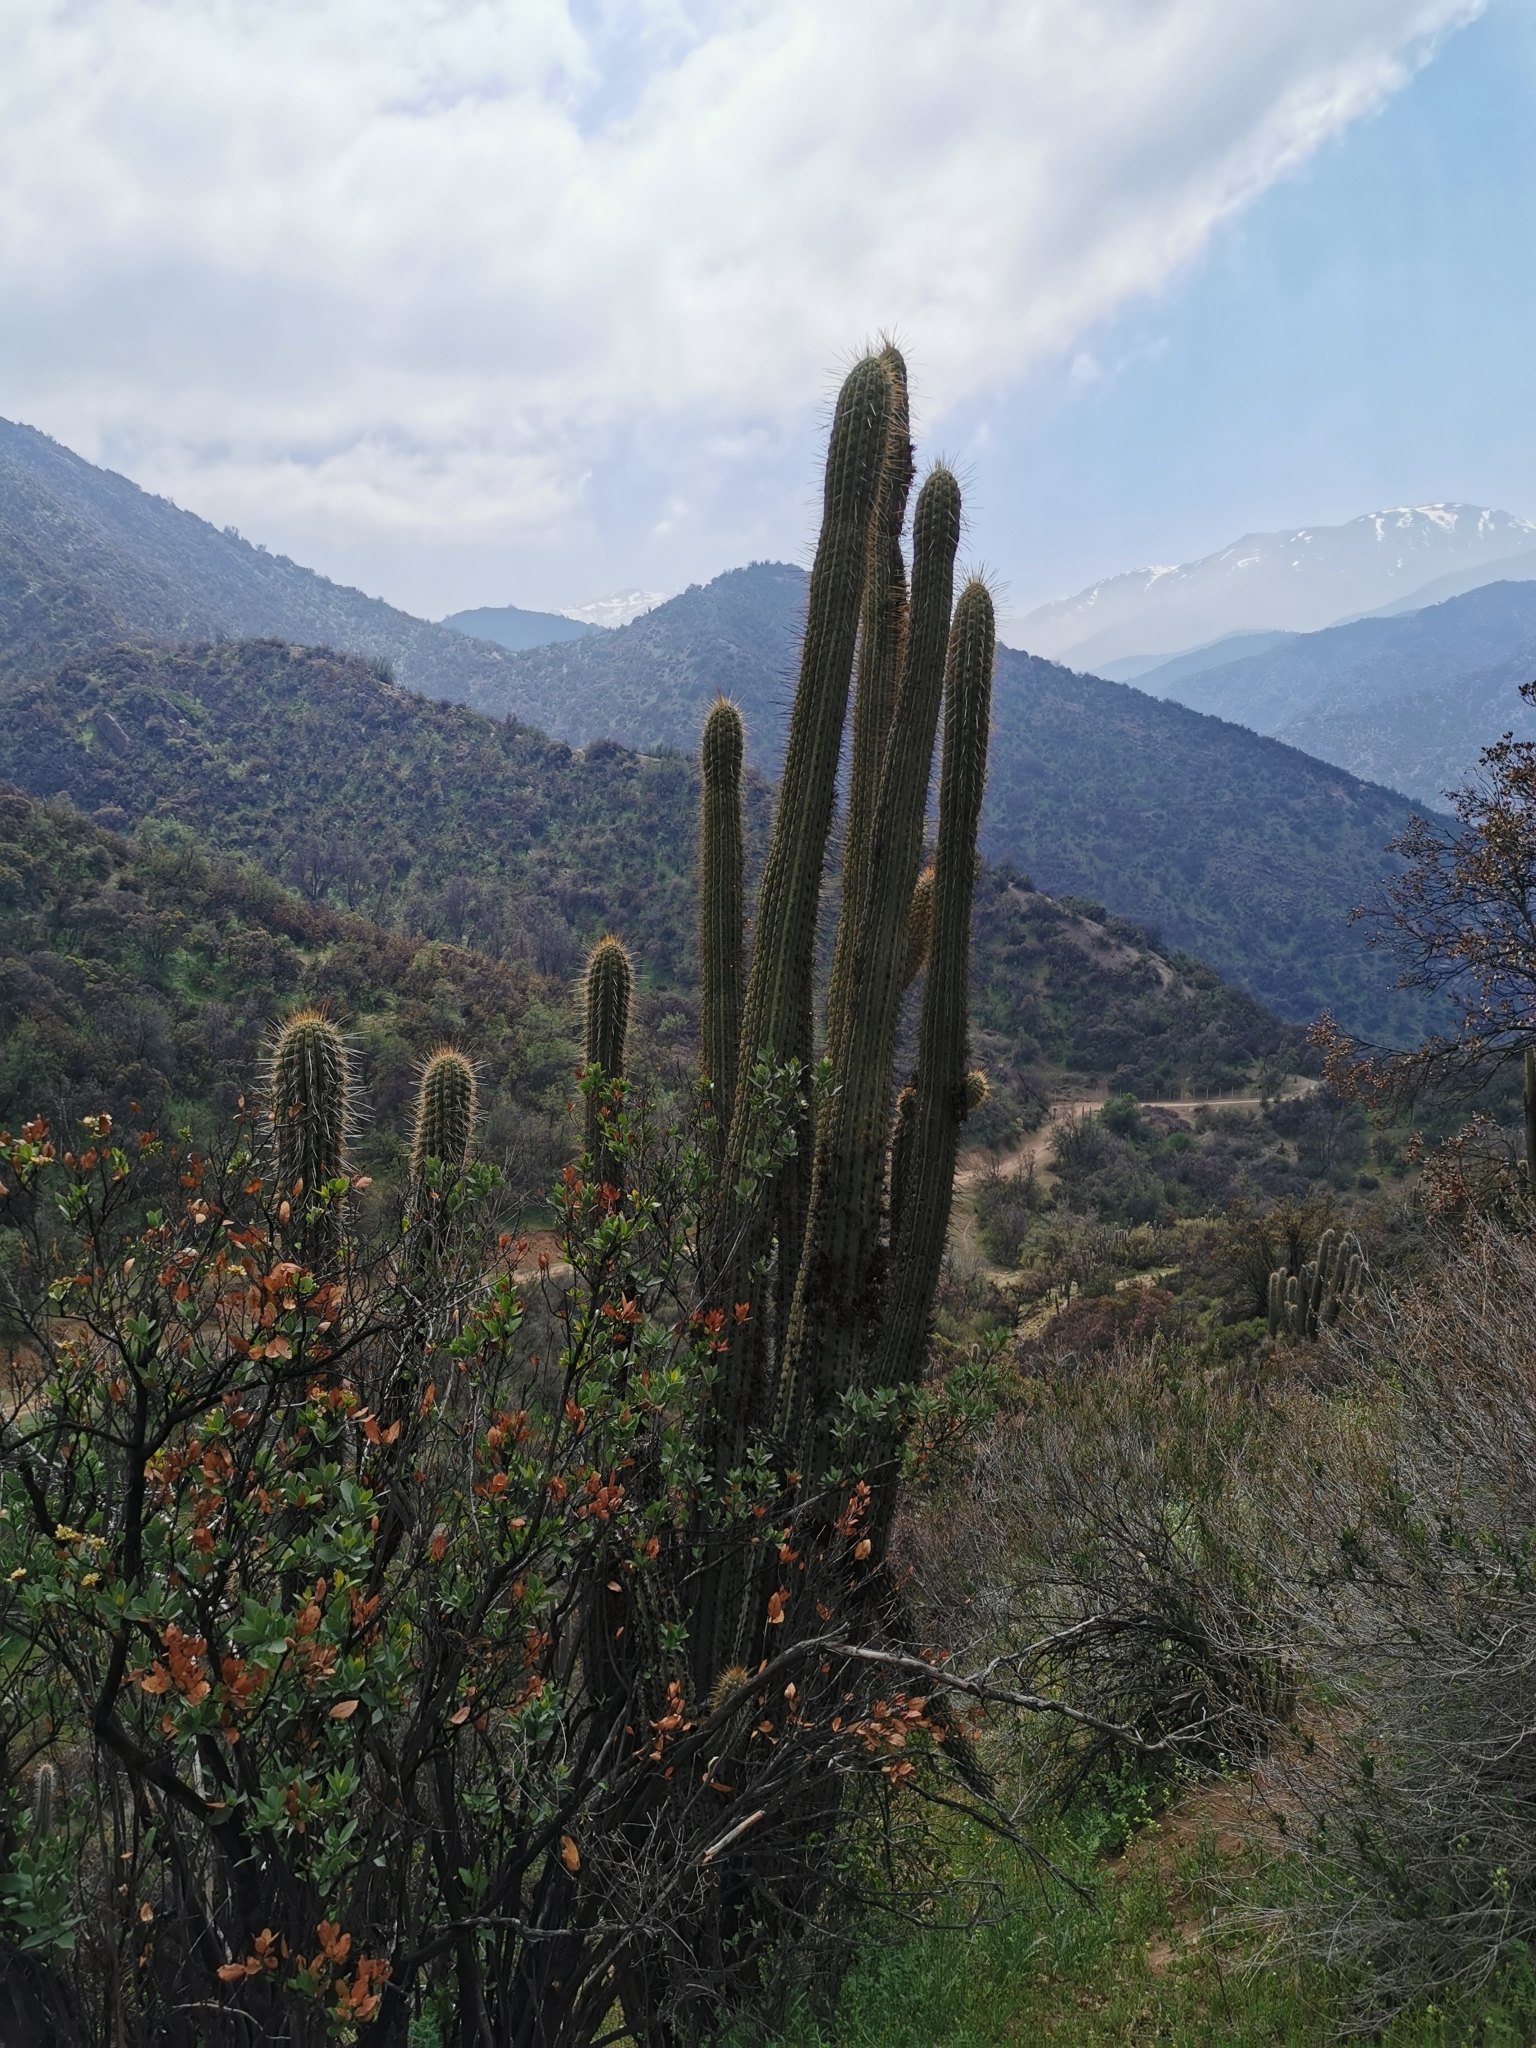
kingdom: Plantae
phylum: Tracheophyta
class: Magnoliopsida
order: Caryophyllales
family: Cactaceae
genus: Leucostele
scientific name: Leucostele chiloensis
